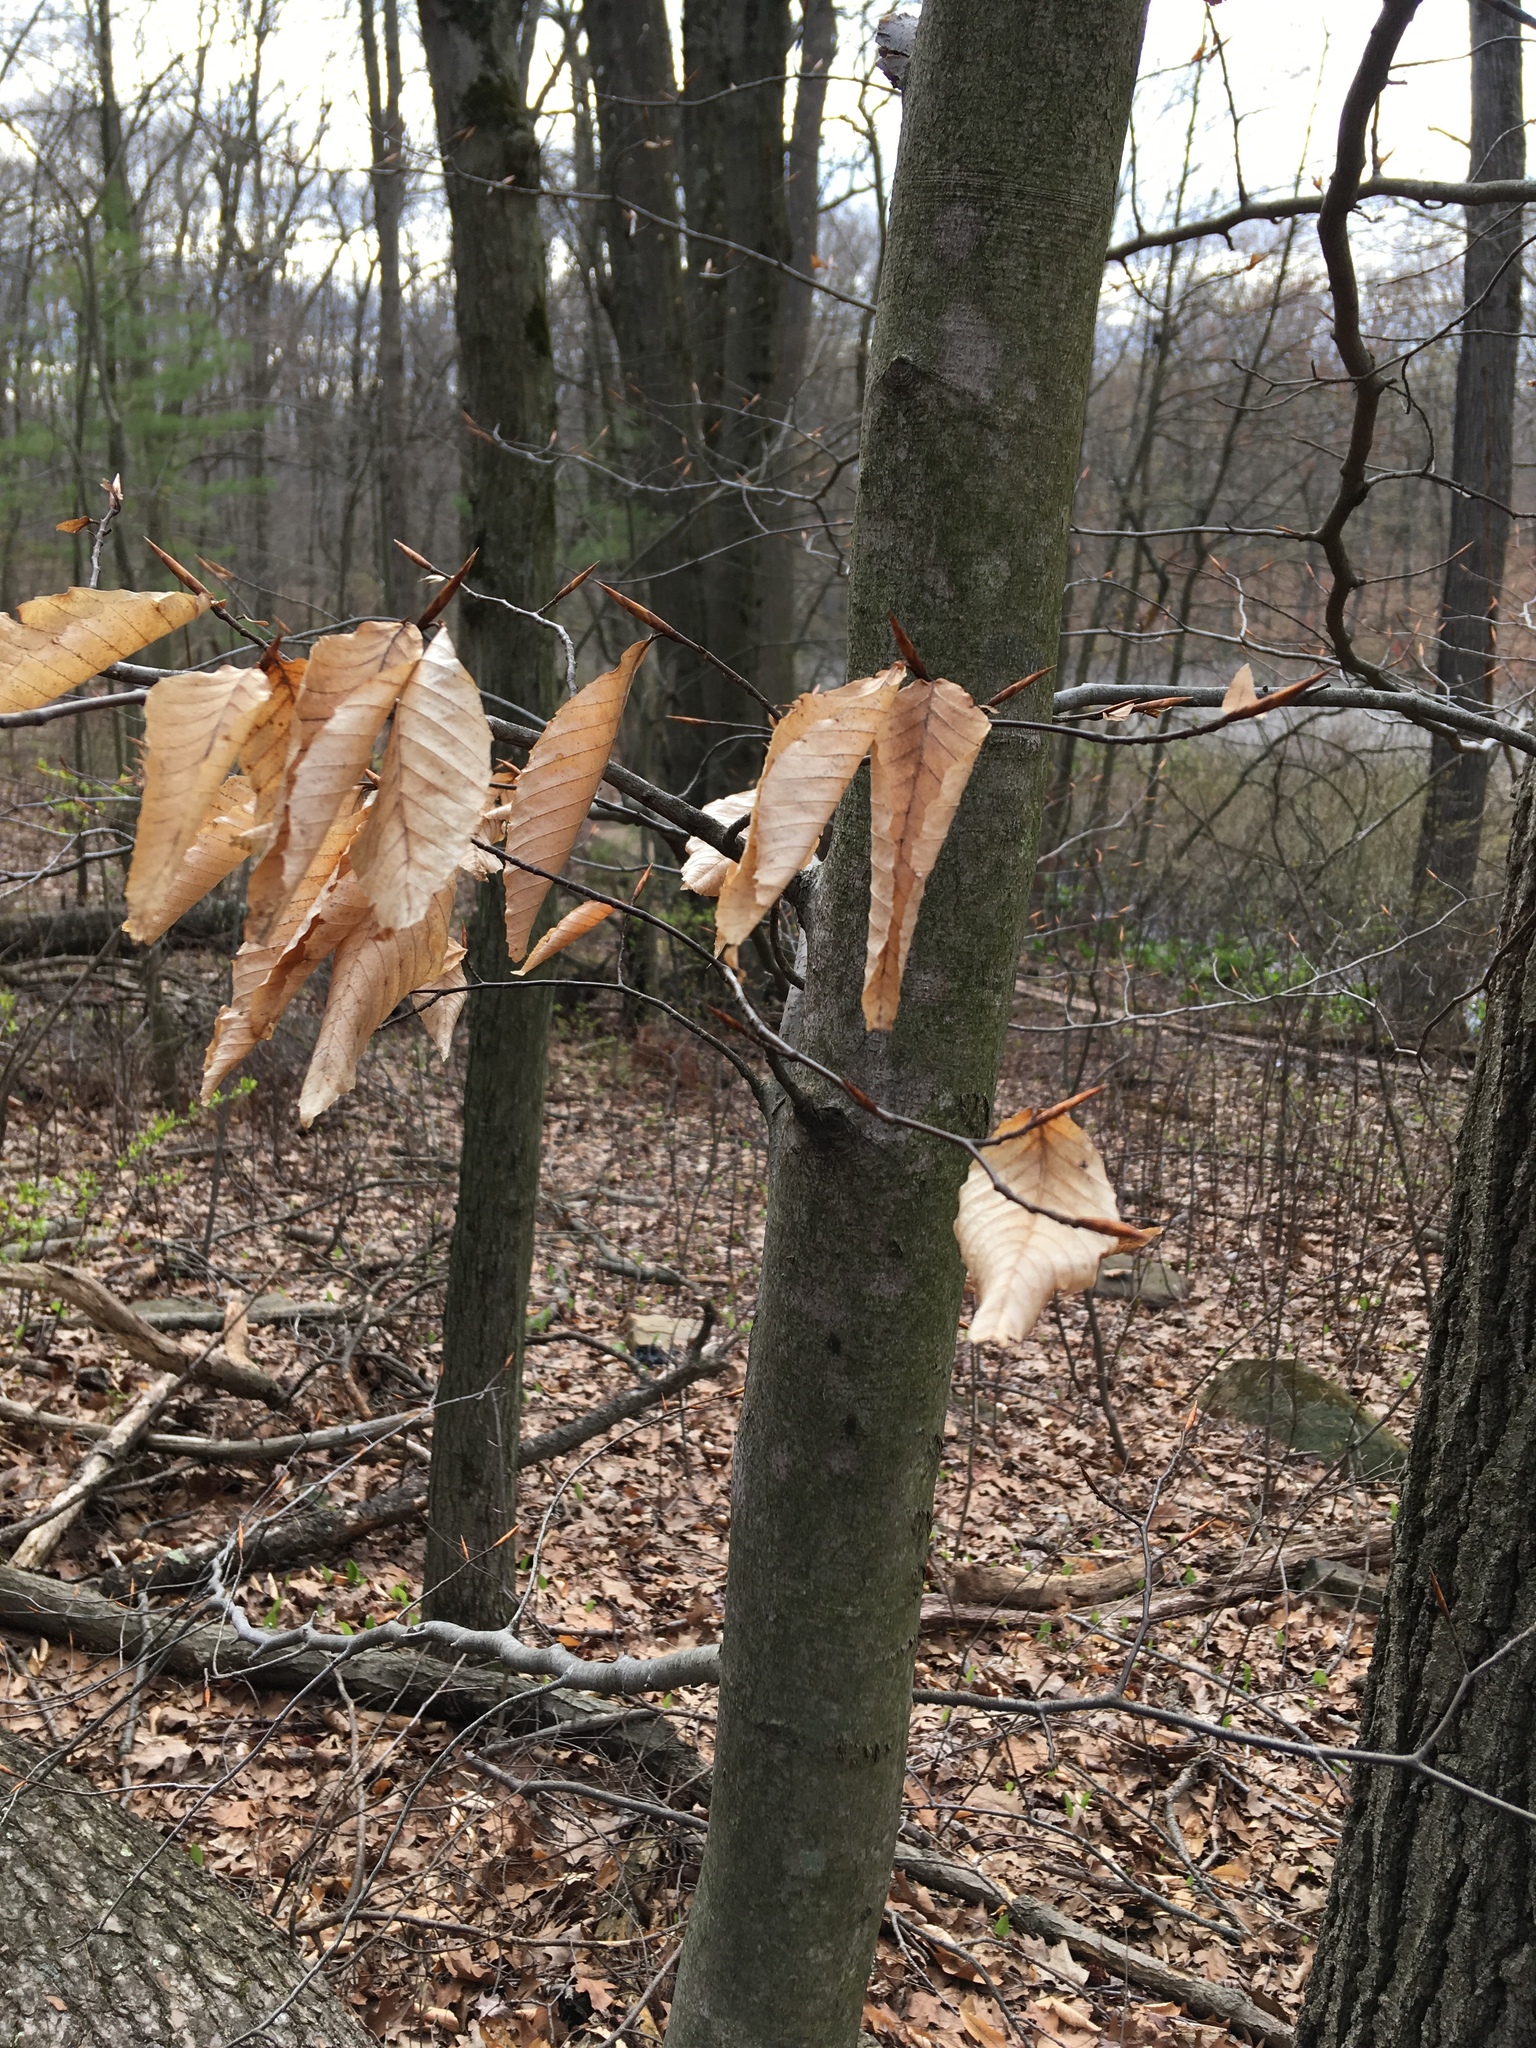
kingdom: Plantae
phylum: Tracheophyta
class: Magnoliopsida
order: Fagales
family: Fagaceae
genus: Fagus
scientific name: Fagus grandifolia
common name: American beech
